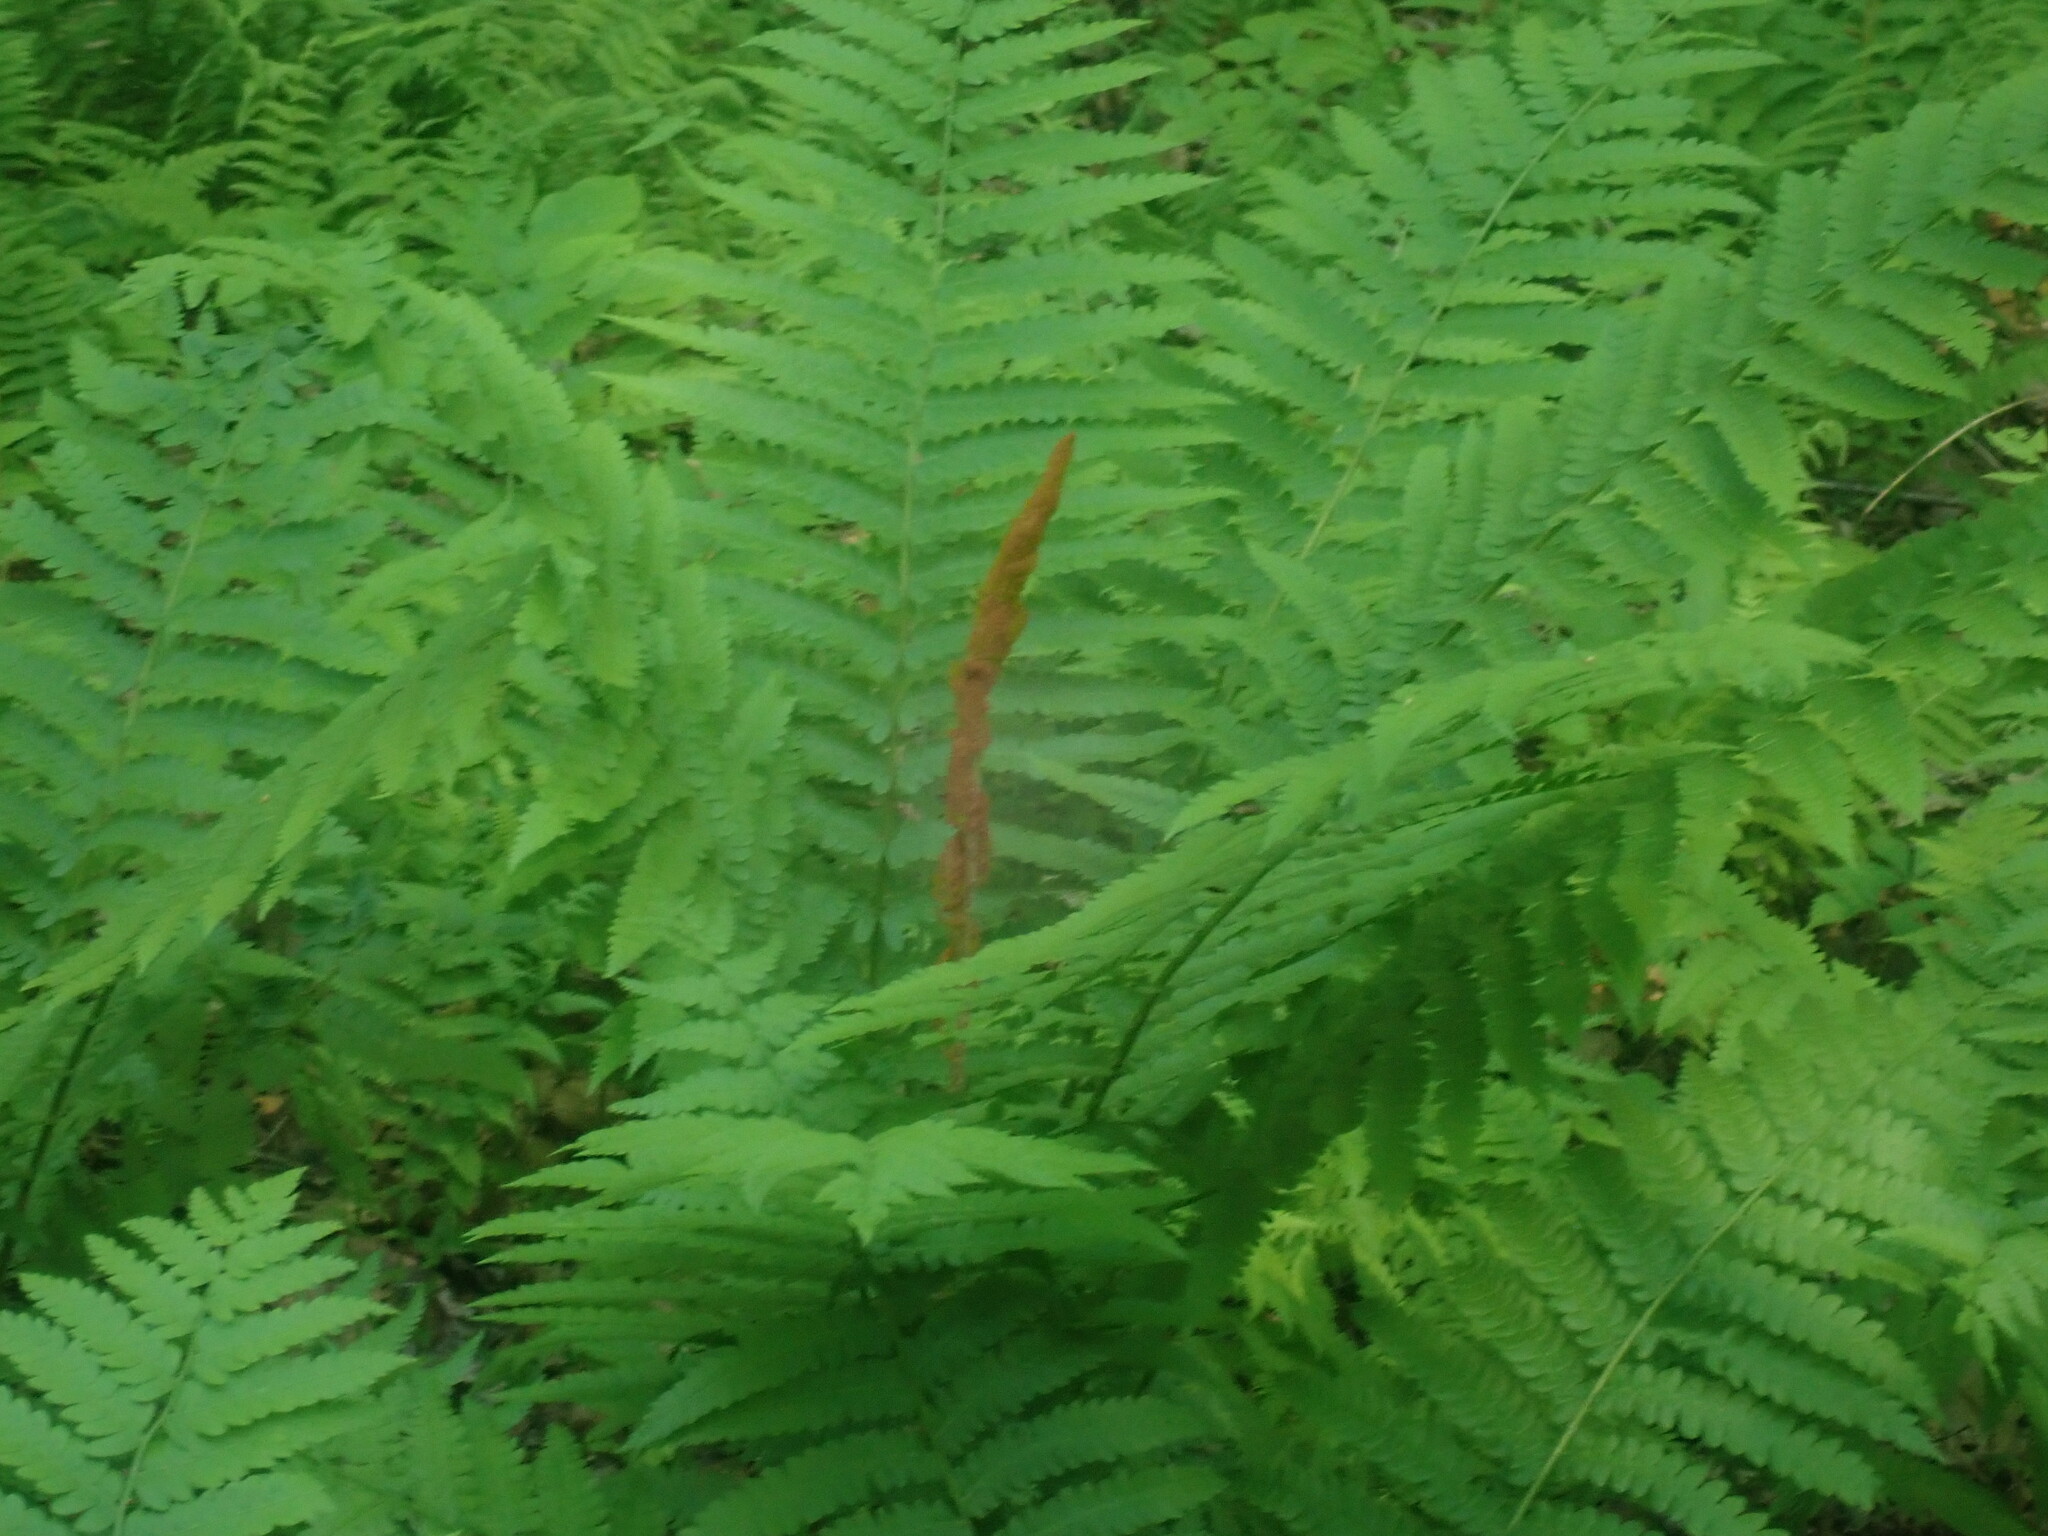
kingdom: Plantae
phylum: Tracheophyta
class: Polypodiopsida
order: Osmundales
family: Osmundaceae
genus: Osmundastrum
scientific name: Osmundastrum cinnamomeum
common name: Cinnamon fern
